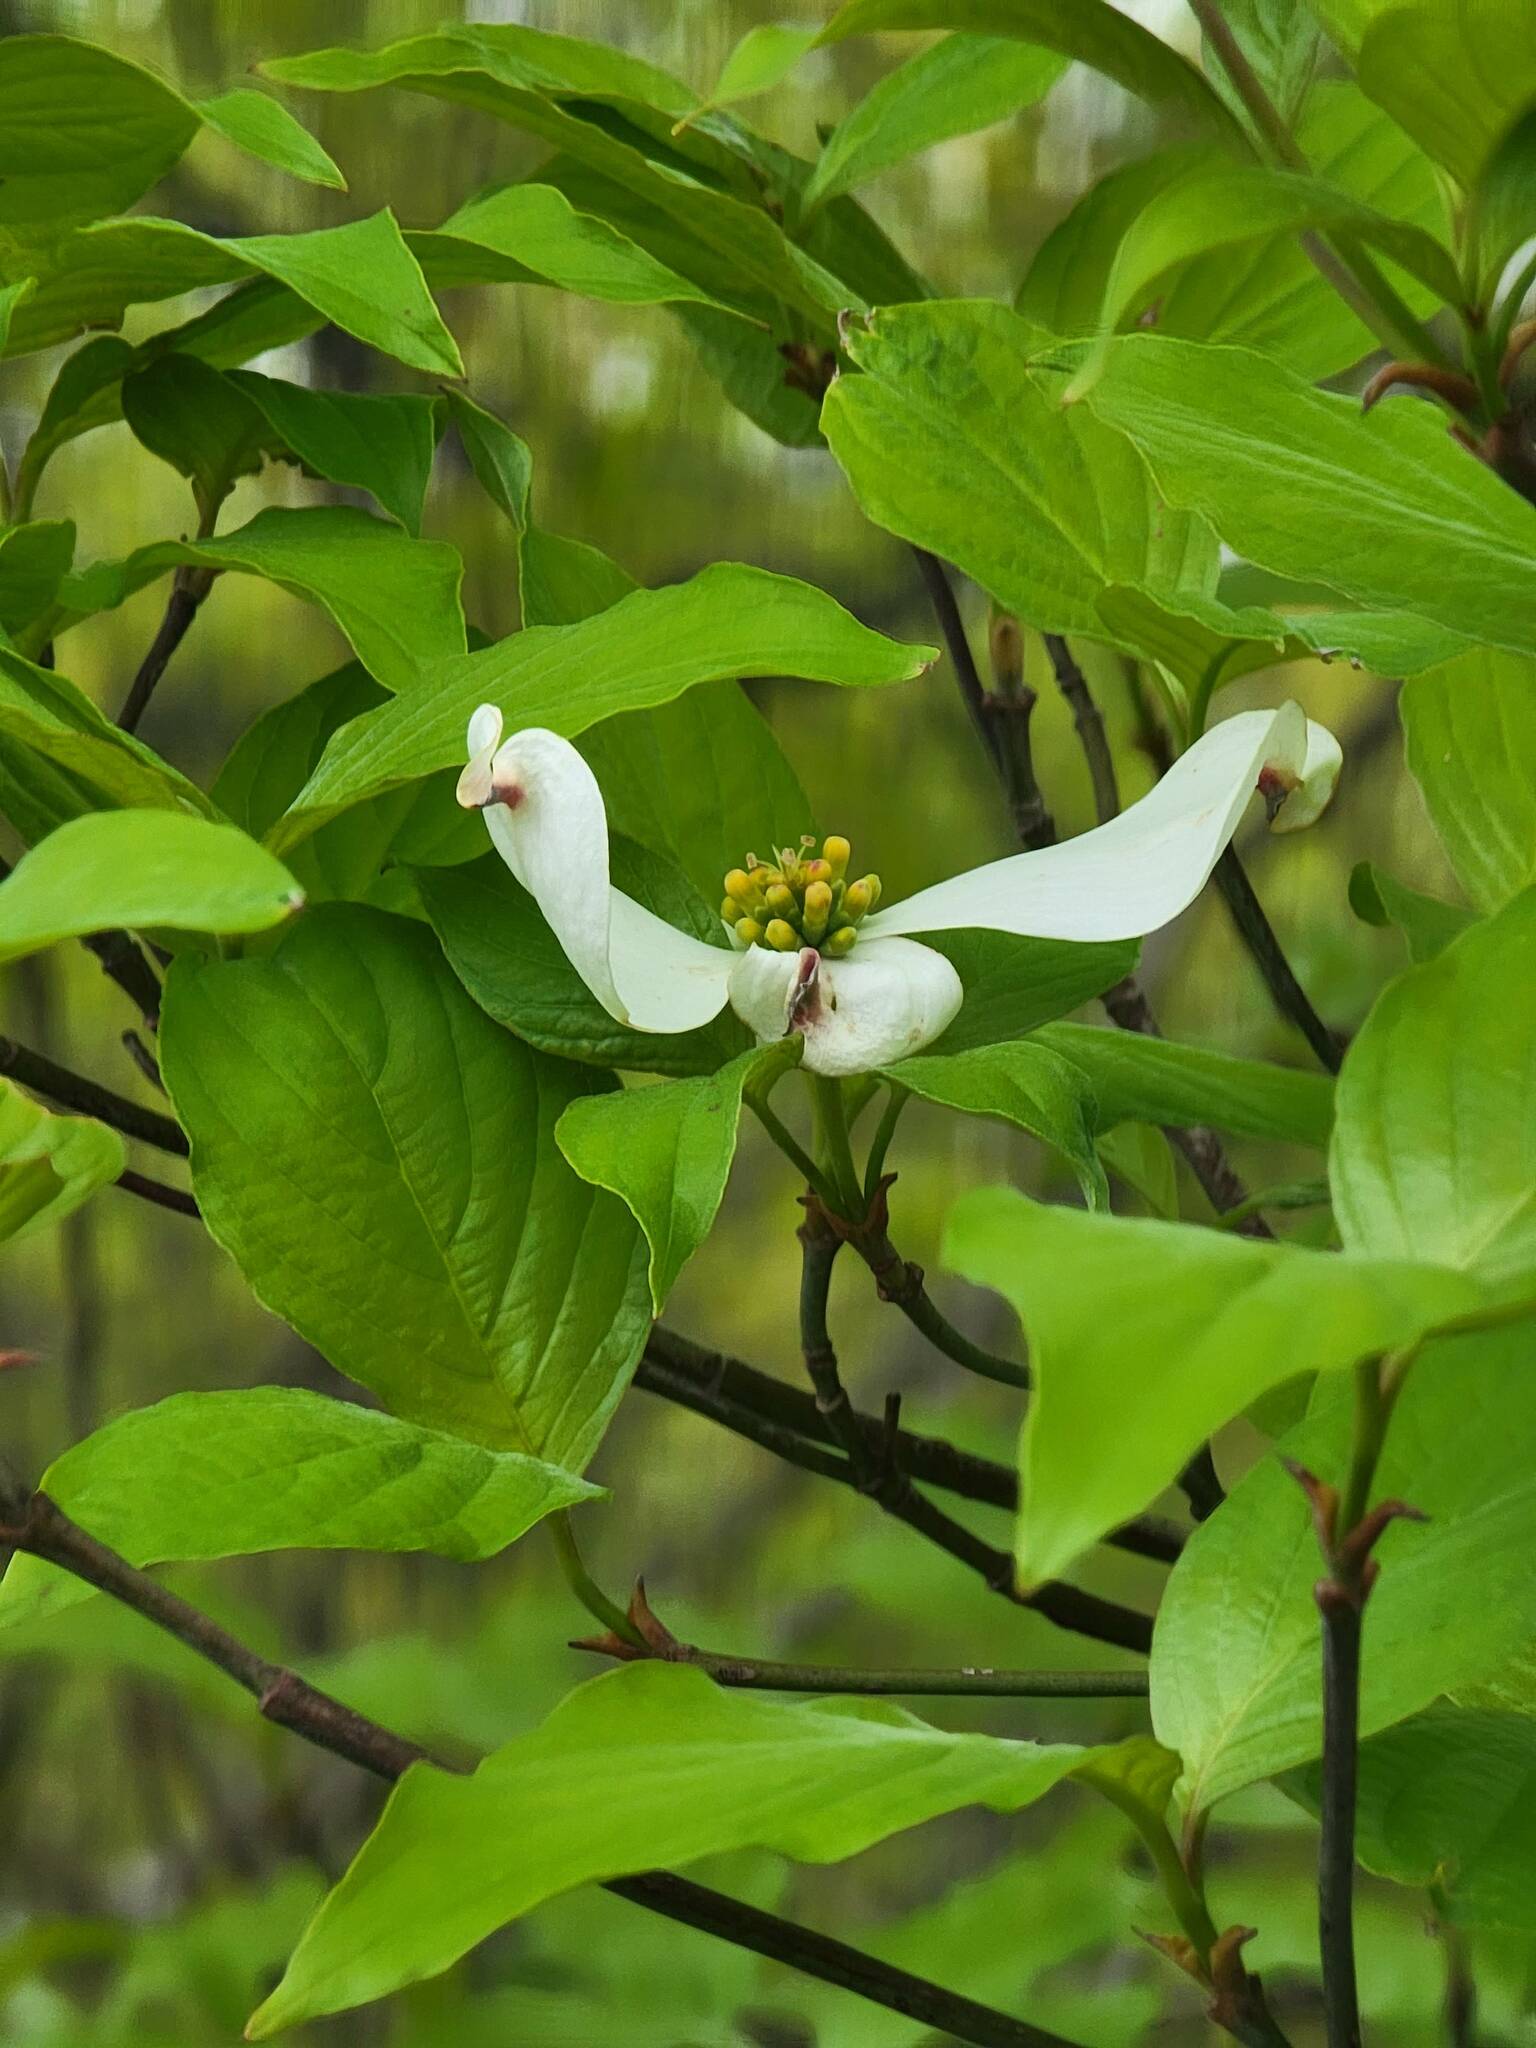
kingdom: Plantae
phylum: Tracheophyta
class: Magnoliopsida
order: Cornales
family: Cornaceae
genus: Cornus
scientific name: Cornus florida
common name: Flowering dogwood
